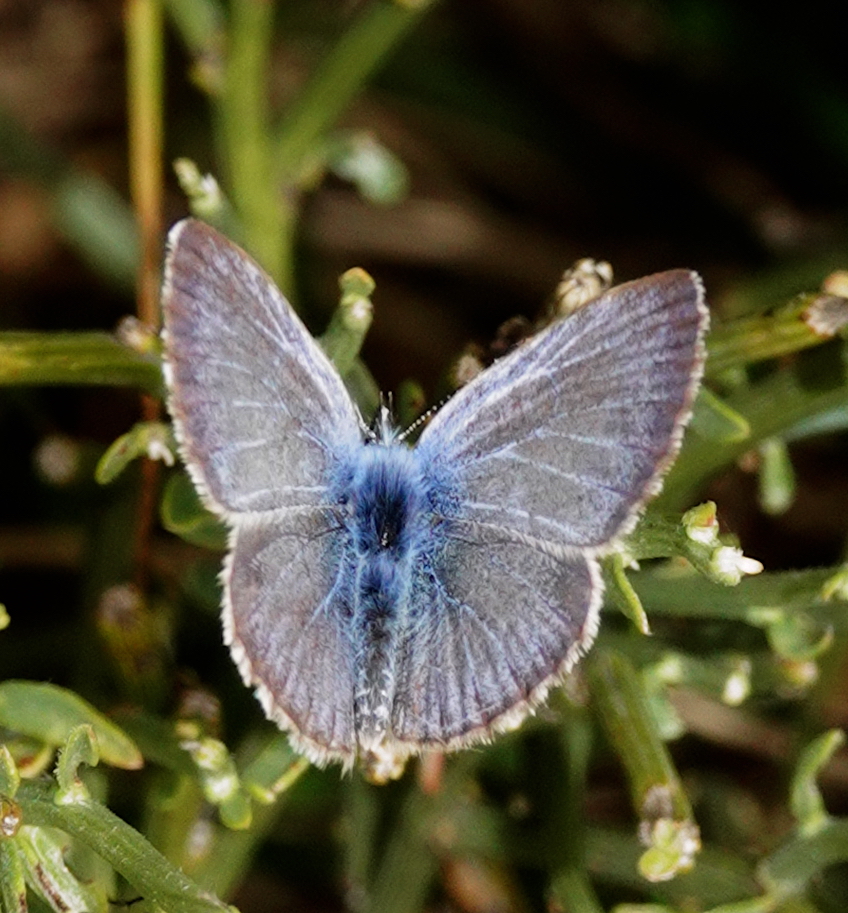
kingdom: Animalia
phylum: Arthropoda
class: Insecta
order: Lepidoptera
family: Lycaenidae
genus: Glaucopsyche
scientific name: Glaucopsyche melanops
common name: Black-eyed blue
